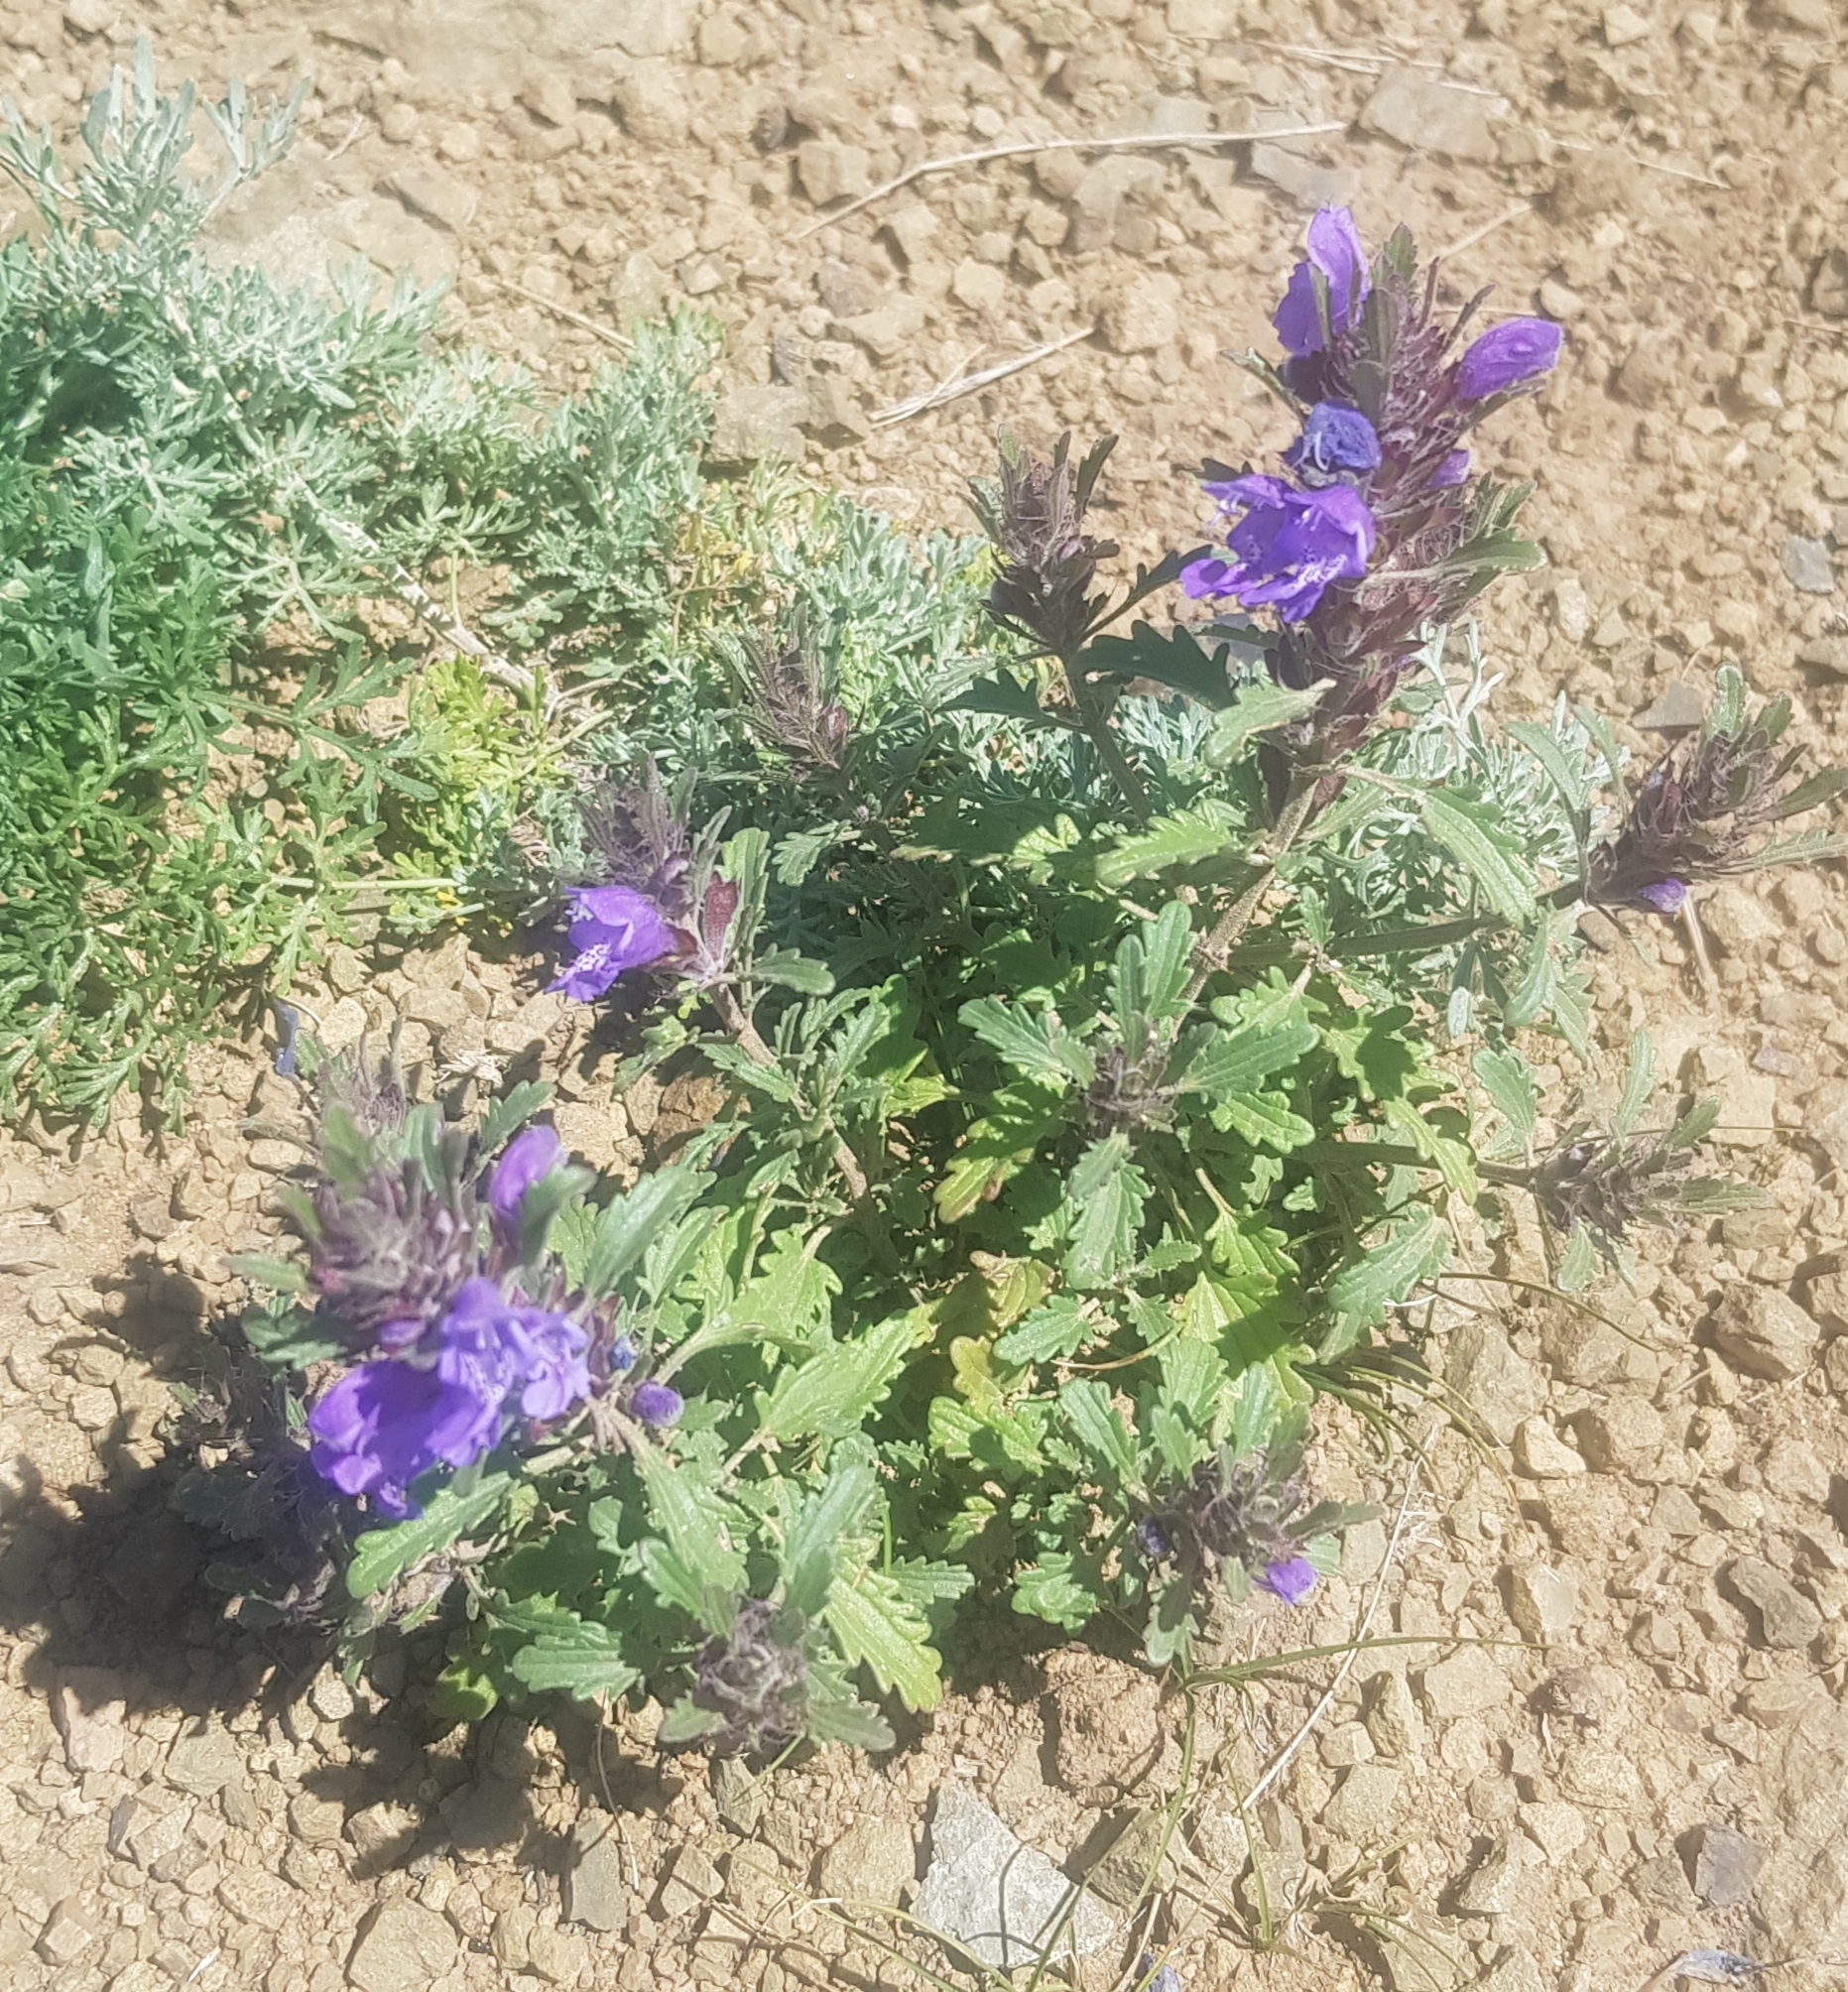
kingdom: Plantae
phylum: Tracheophyta
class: Magnoliopsida
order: Lamiales
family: Lamiaceae
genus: Dracocephalum
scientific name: Dracocephalum grandiflorum
